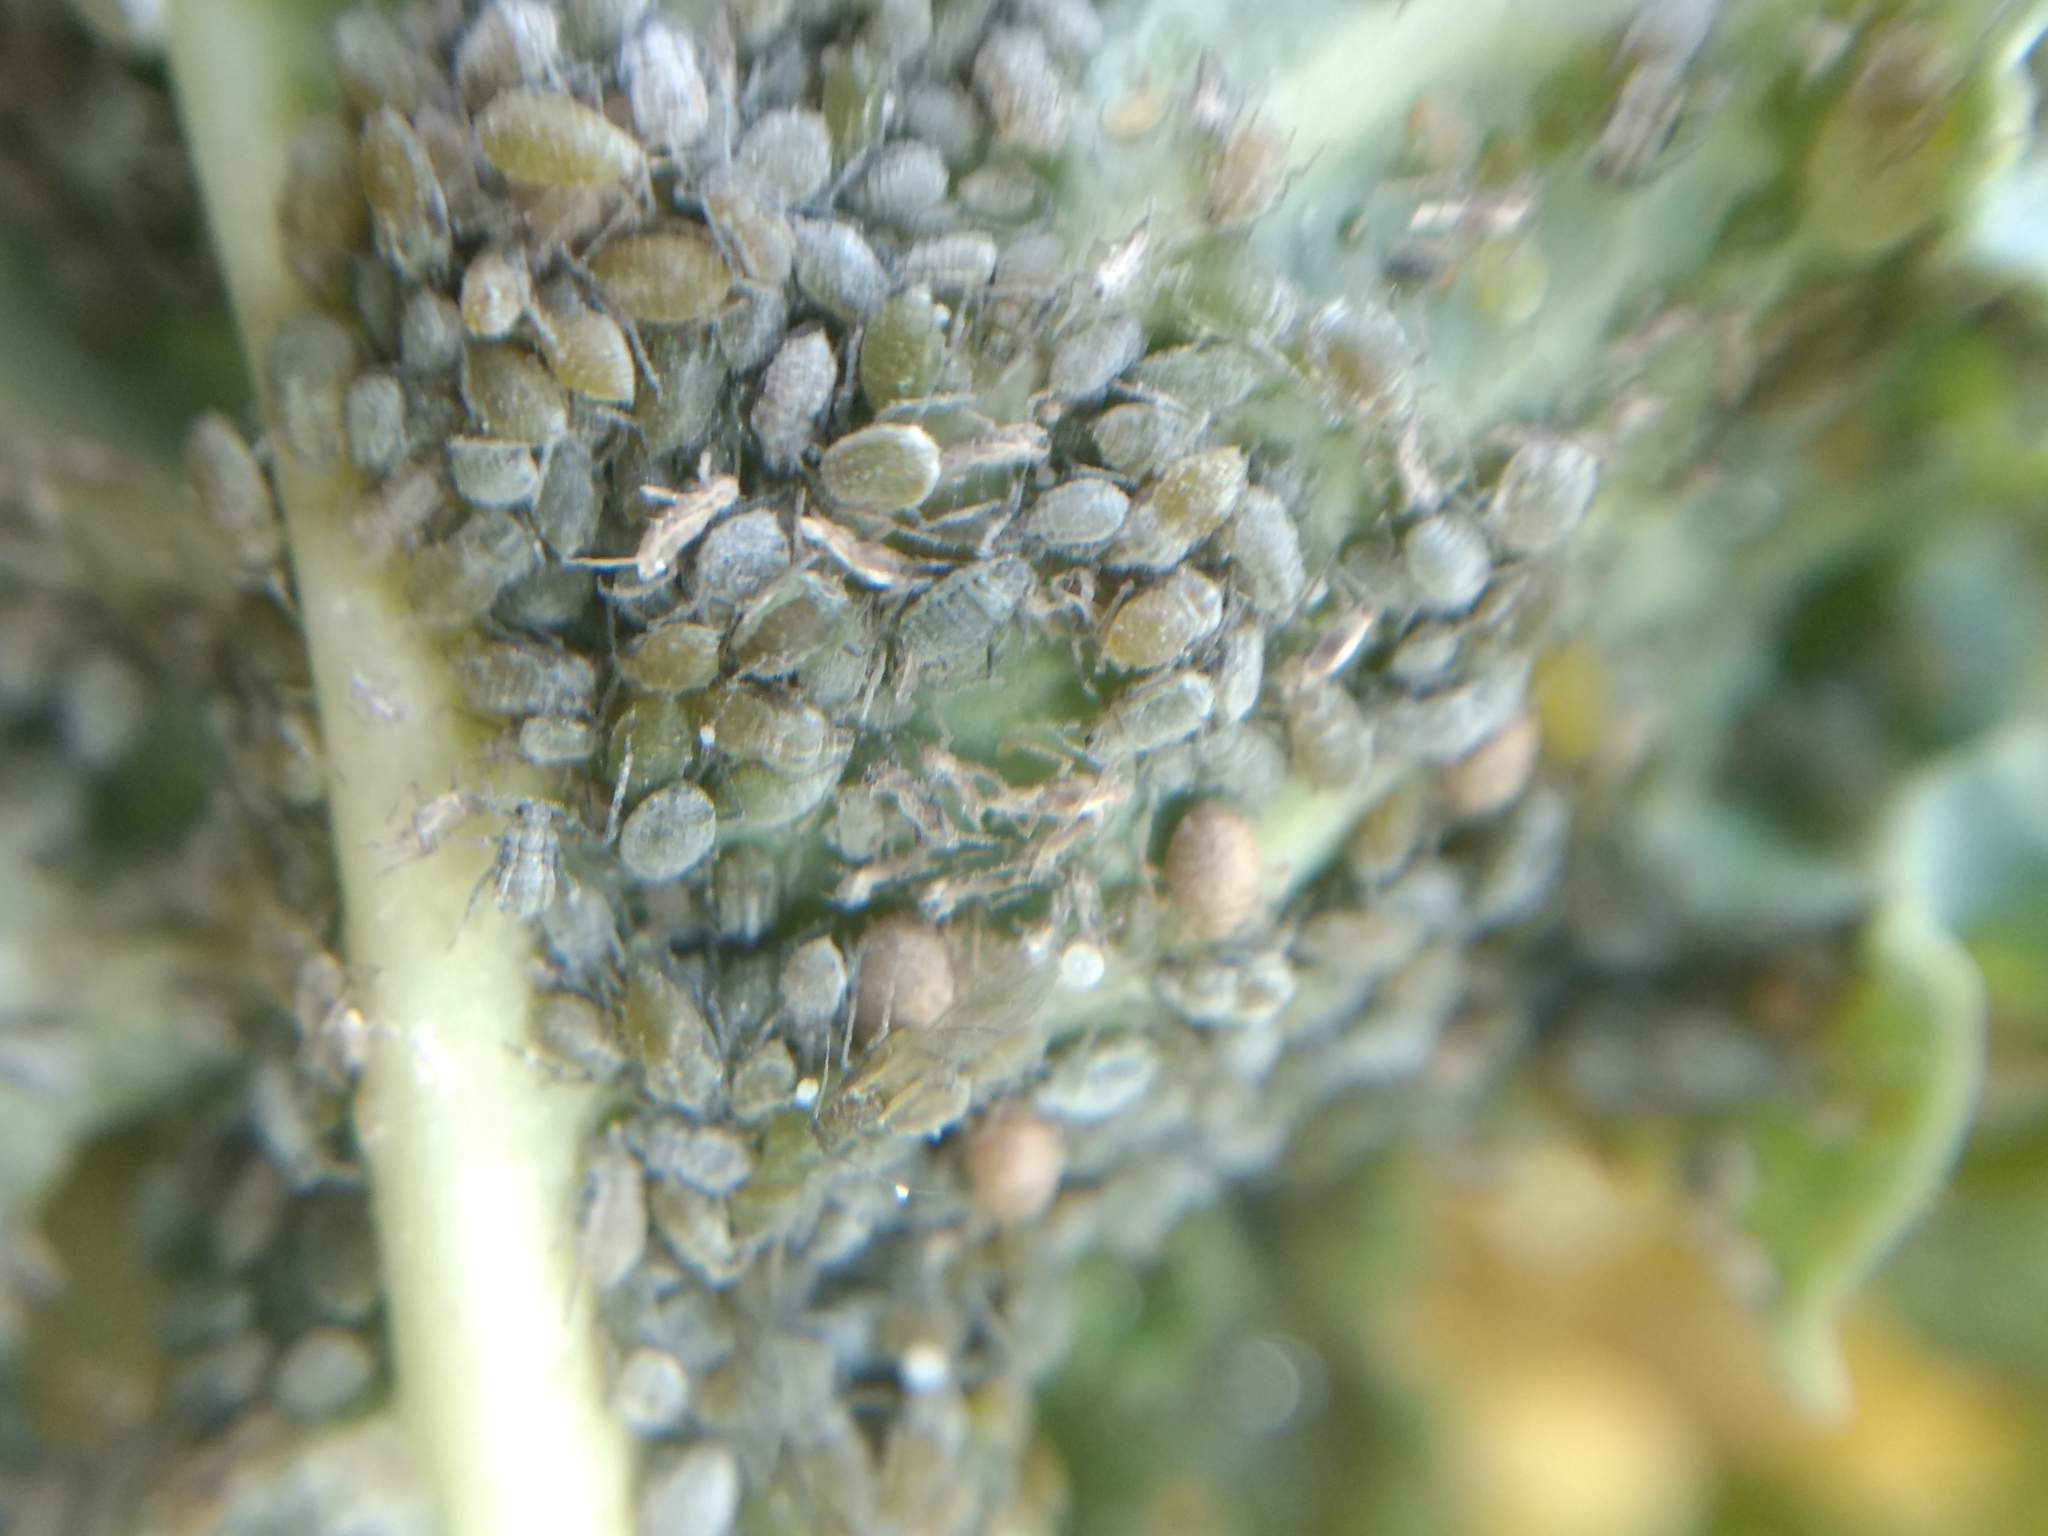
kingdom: Animalia
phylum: Arthropoda
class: Insecta
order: Hemiptera
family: Aphididae
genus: Brevicoryne
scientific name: Brevicoryne brassicae
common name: Cabbage aphid
